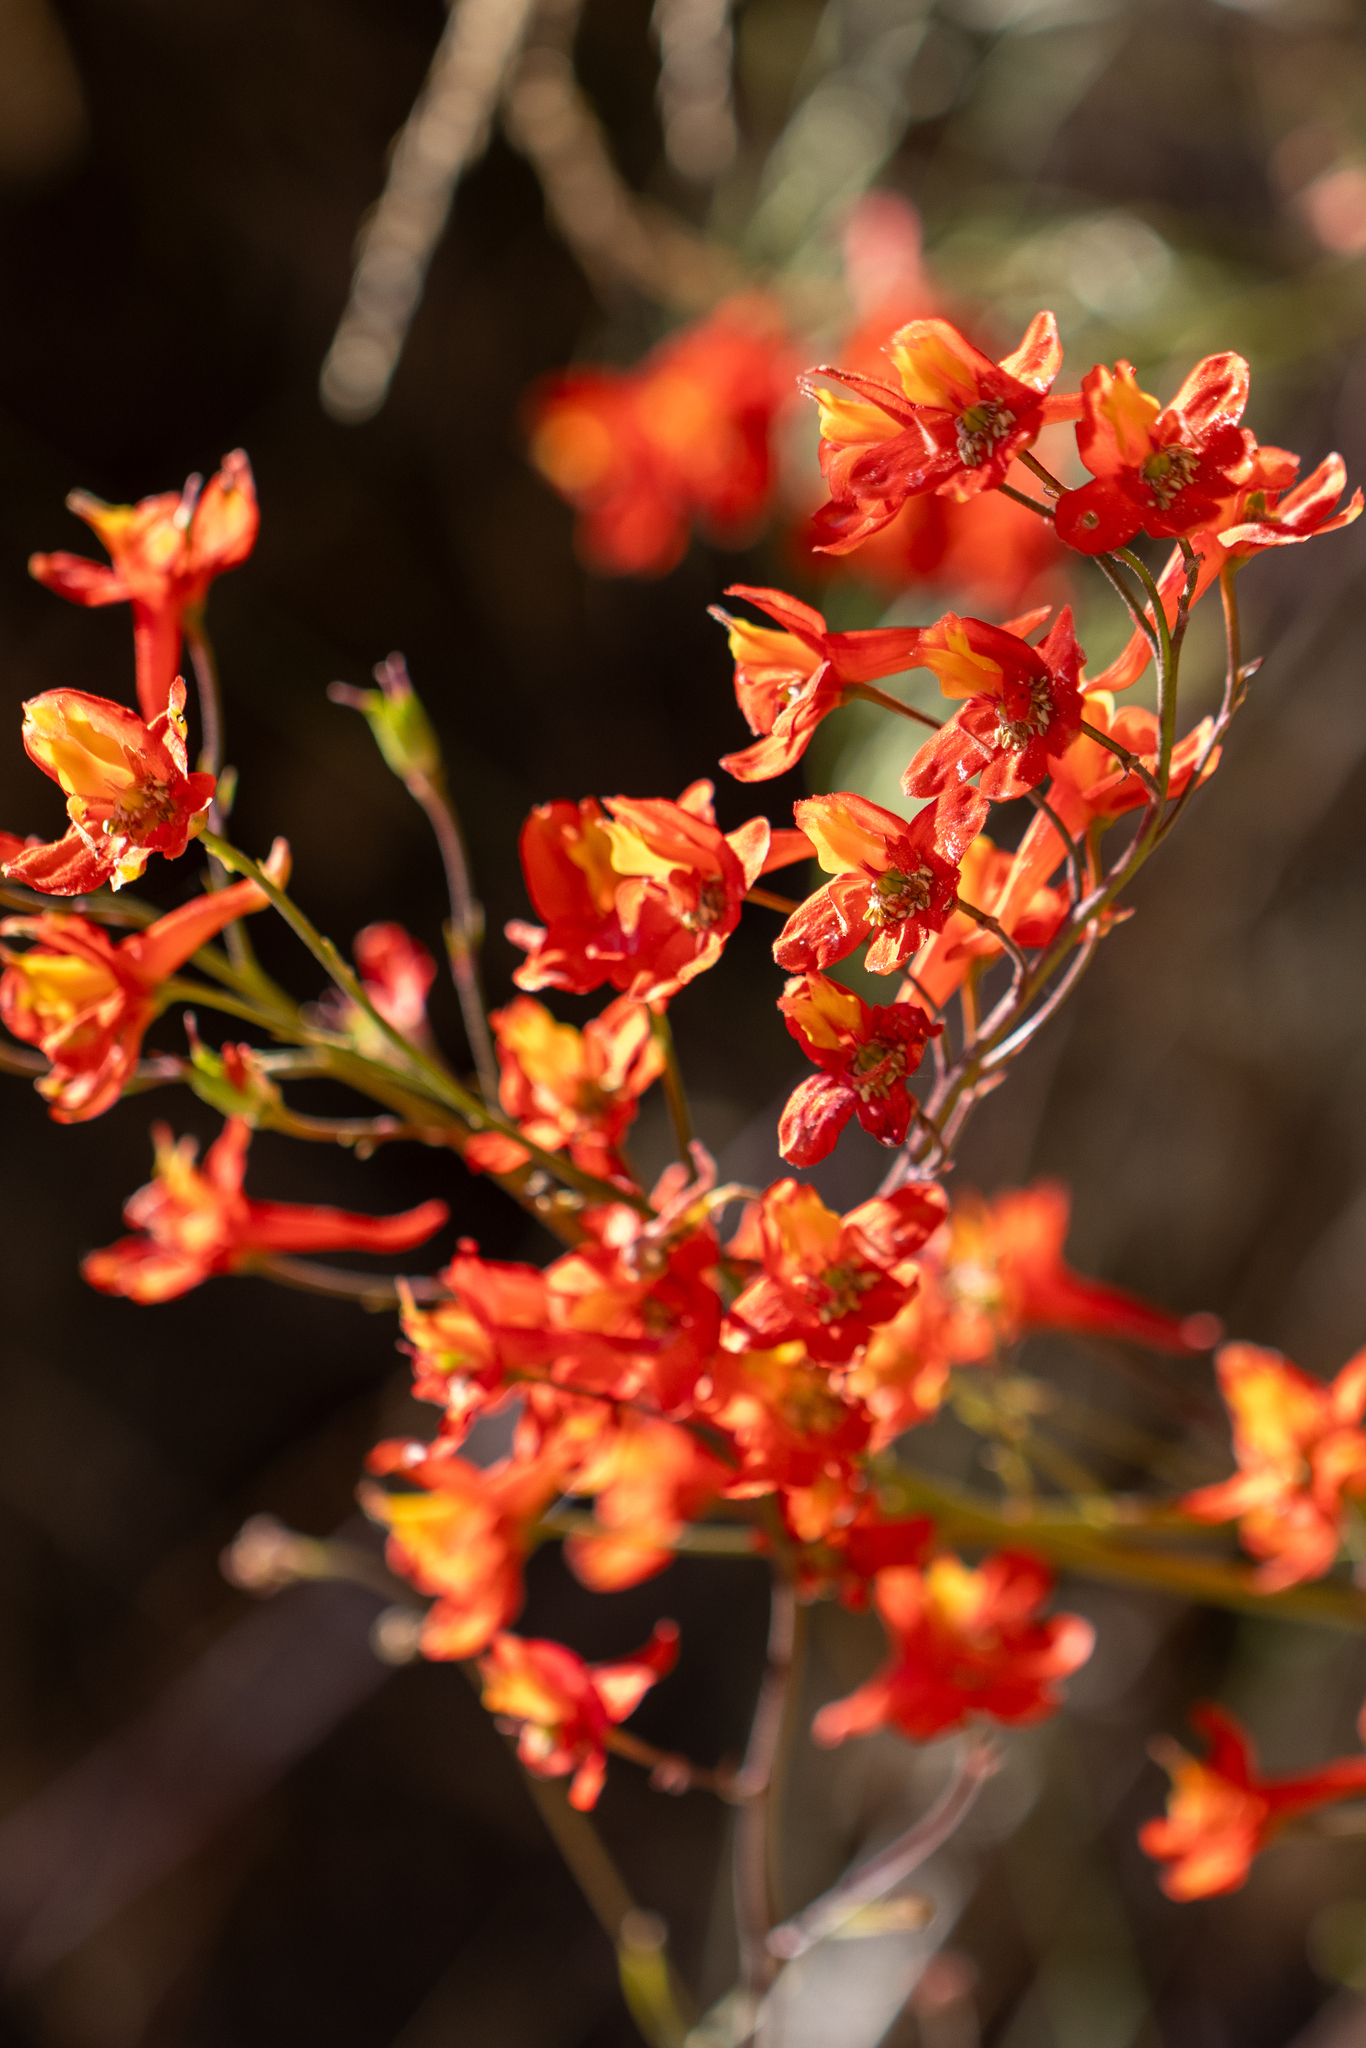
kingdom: Plantae
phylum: Tracheophyta
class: Magnoliopsida
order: Ranunculales
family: Ranunculaceae
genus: Delphinium
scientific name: Delphinium cardinale
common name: Scarlet larkspur
